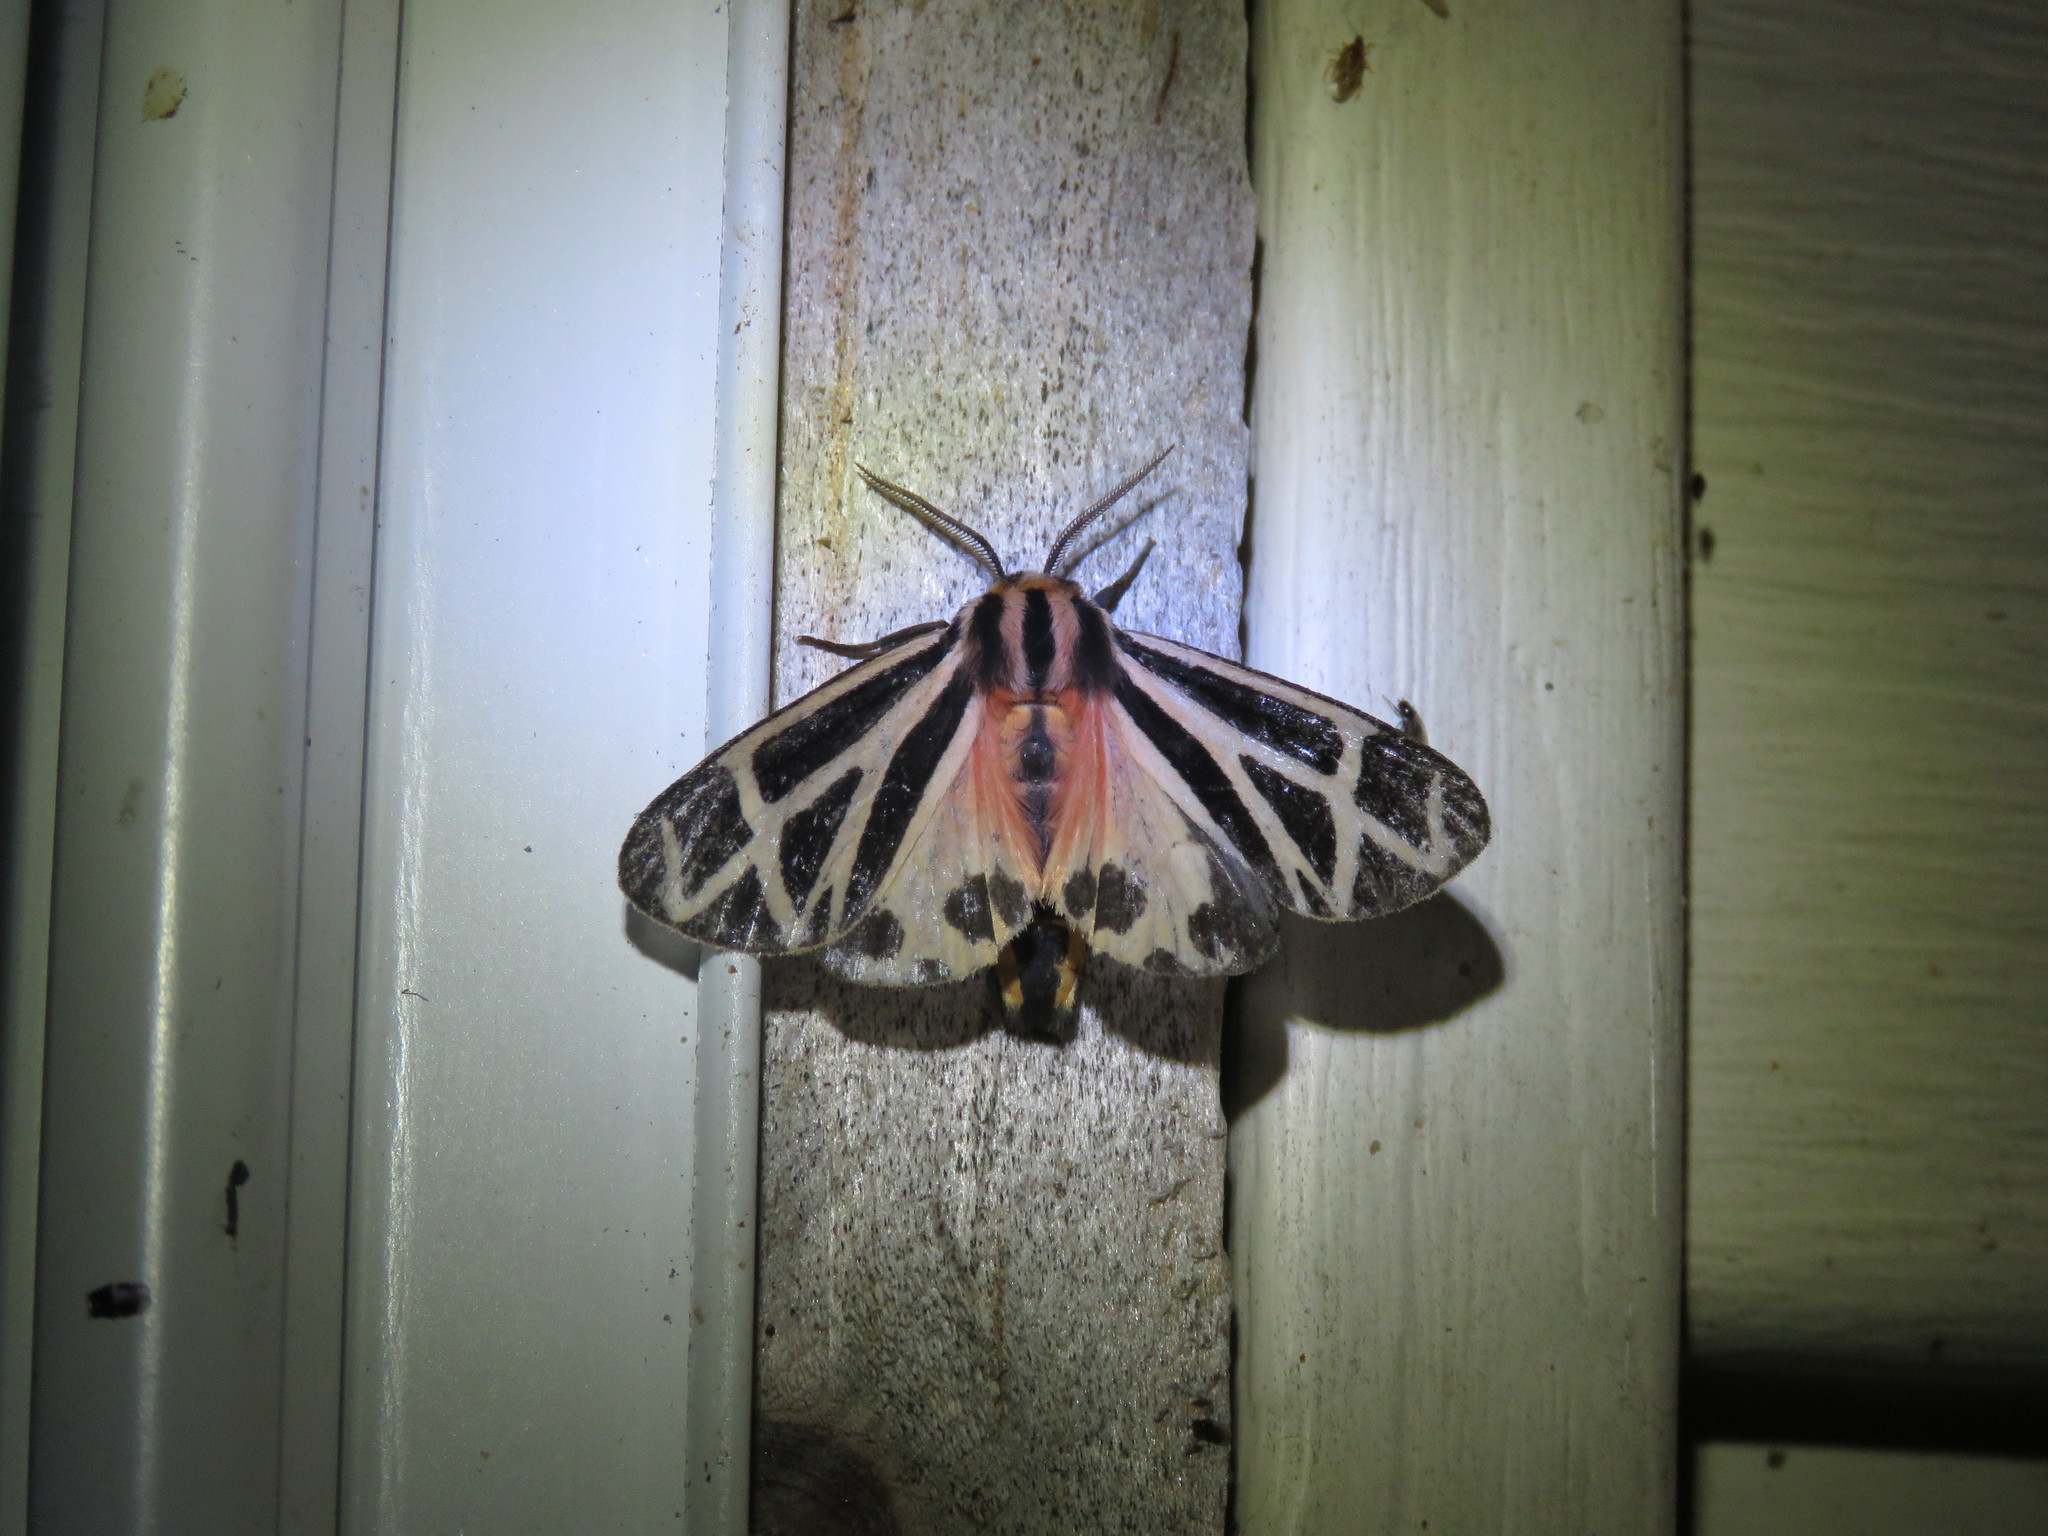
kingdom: Animalia
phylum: Arthropoda
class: Insecta
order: Lepidoptera
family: Erebidae
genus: Apantesis
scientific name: Apantesis phalerata
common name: Harnessed tiger moth
